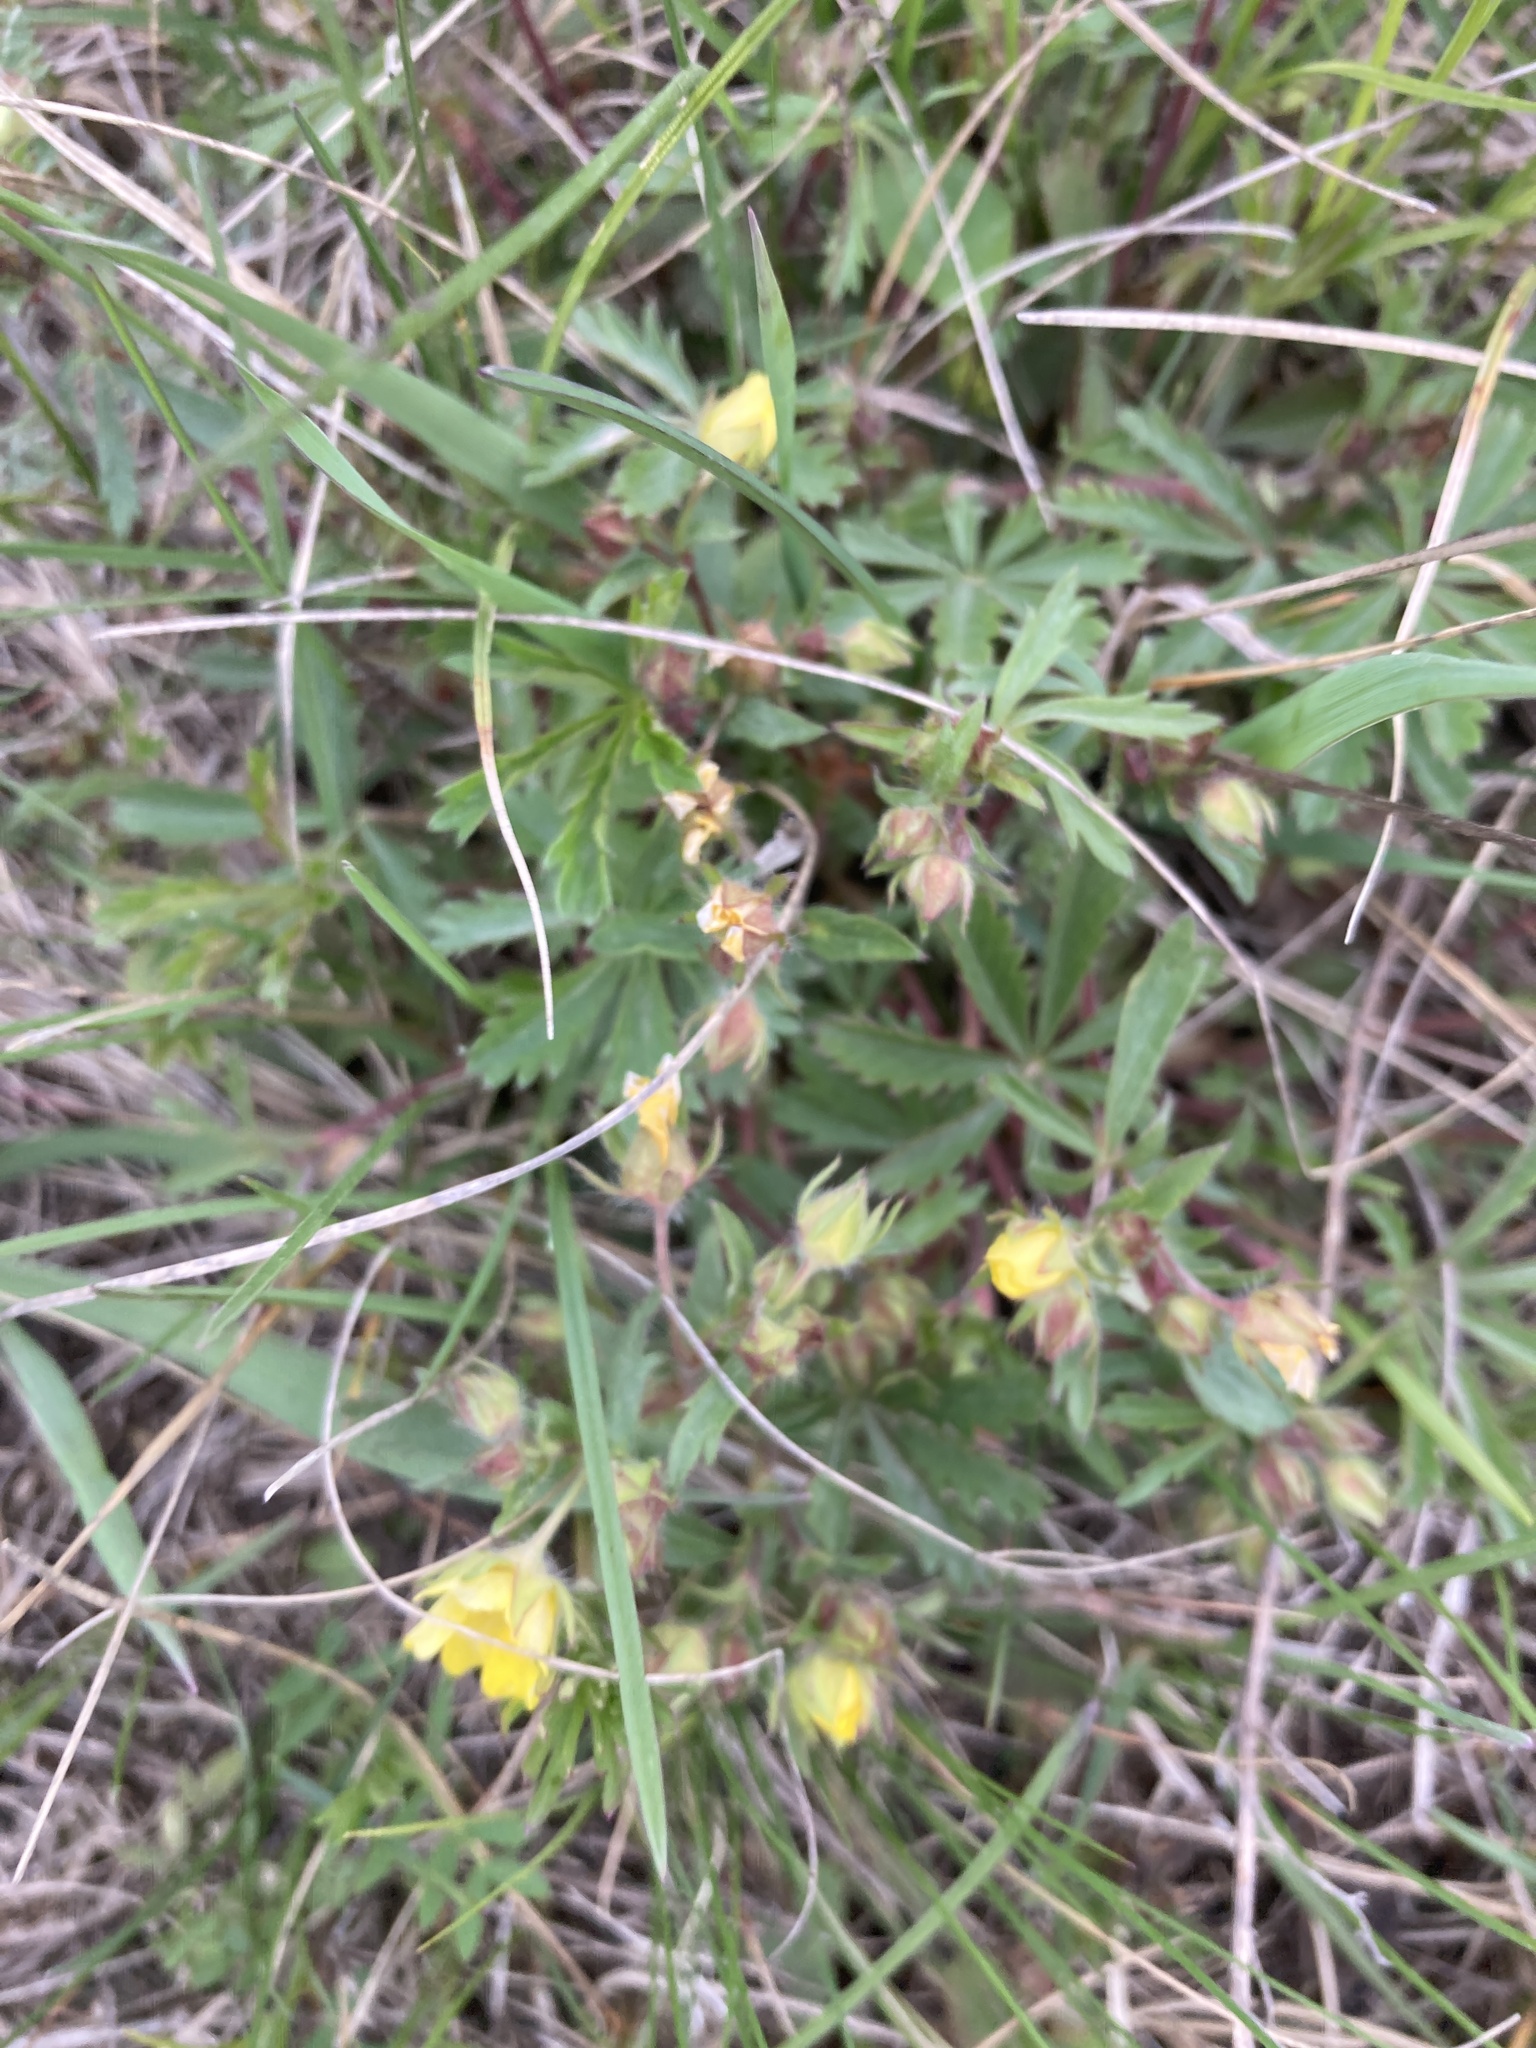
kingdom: Plantae
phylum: Tracheophyta
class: Magnoliopsida
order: Rosales
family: Rosaceae
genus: Potentilla
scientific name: Potentilla humifusa
